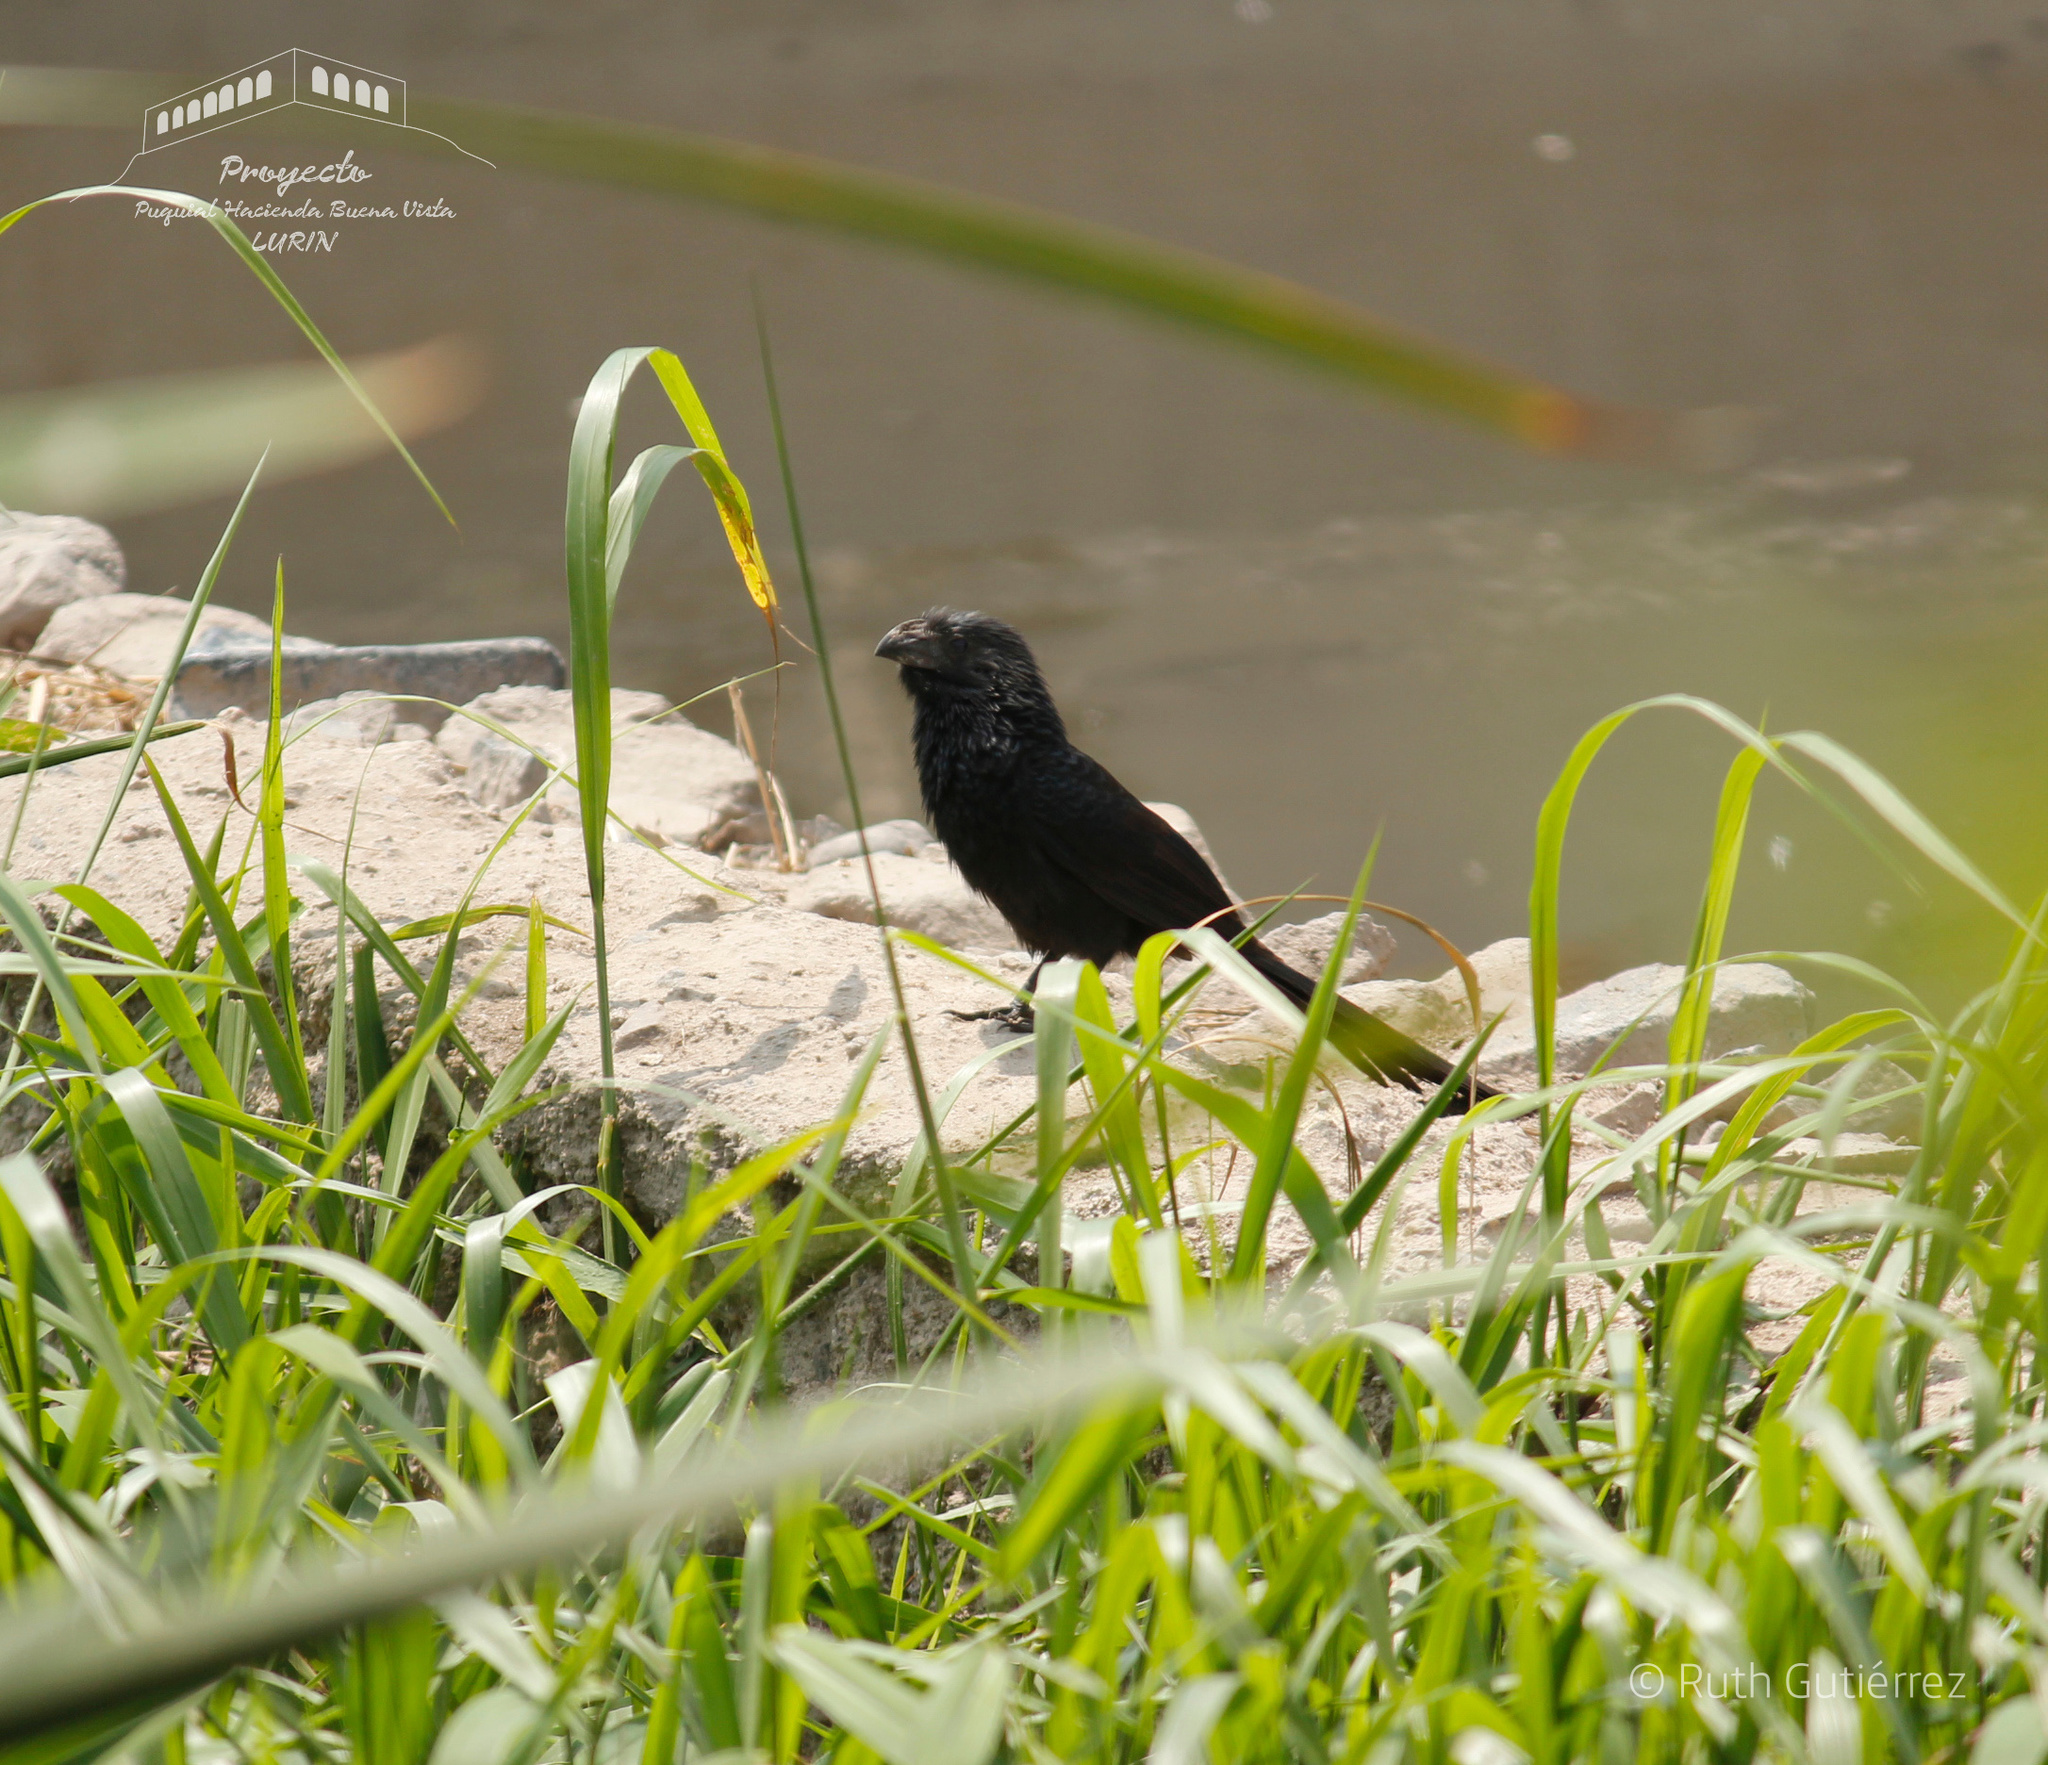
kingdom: Animalia
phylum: Chordata
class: Aves
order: Cuculiformes
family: Cuculidae
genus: Crotophaga
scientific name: Crotophaga sulcirostris
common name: Groove-billed ani
